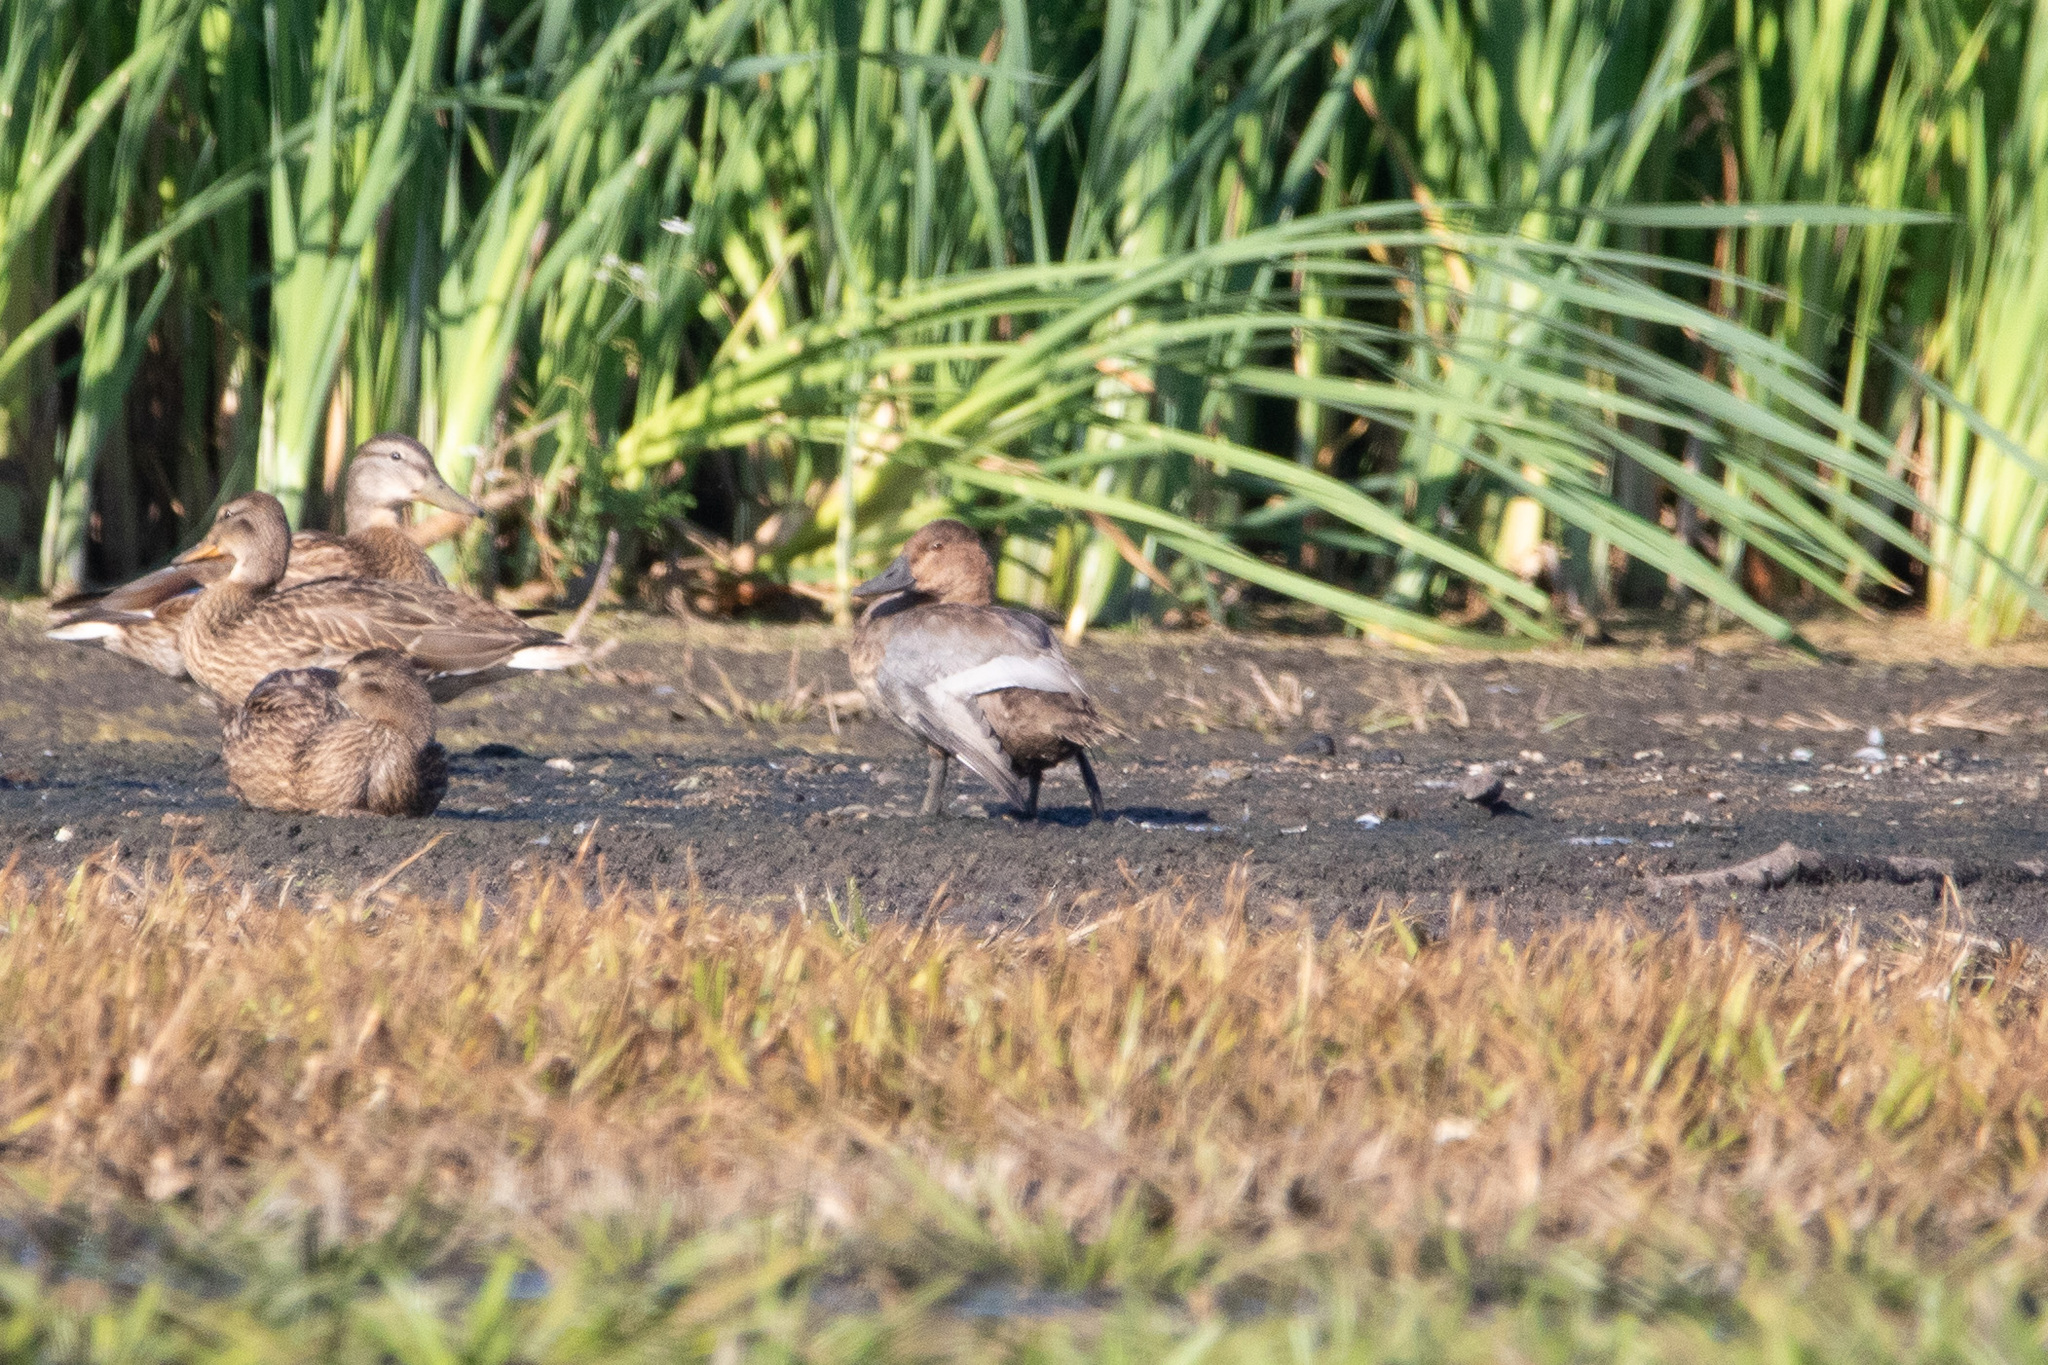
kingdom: Animalia
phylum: Chordata
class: Aves
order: Anseriformes
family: Anatidae
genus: Aythya
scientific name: Aythya ferina
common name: Common pochard
